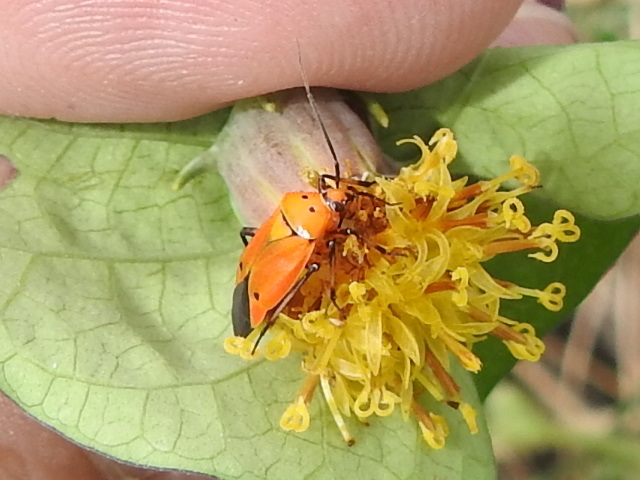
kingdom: Animalia
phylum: Arthropoda
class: Insecta
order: Hemiptera
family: Miridae
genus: Neocapsus
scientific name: Neocapsus fasciativentris
